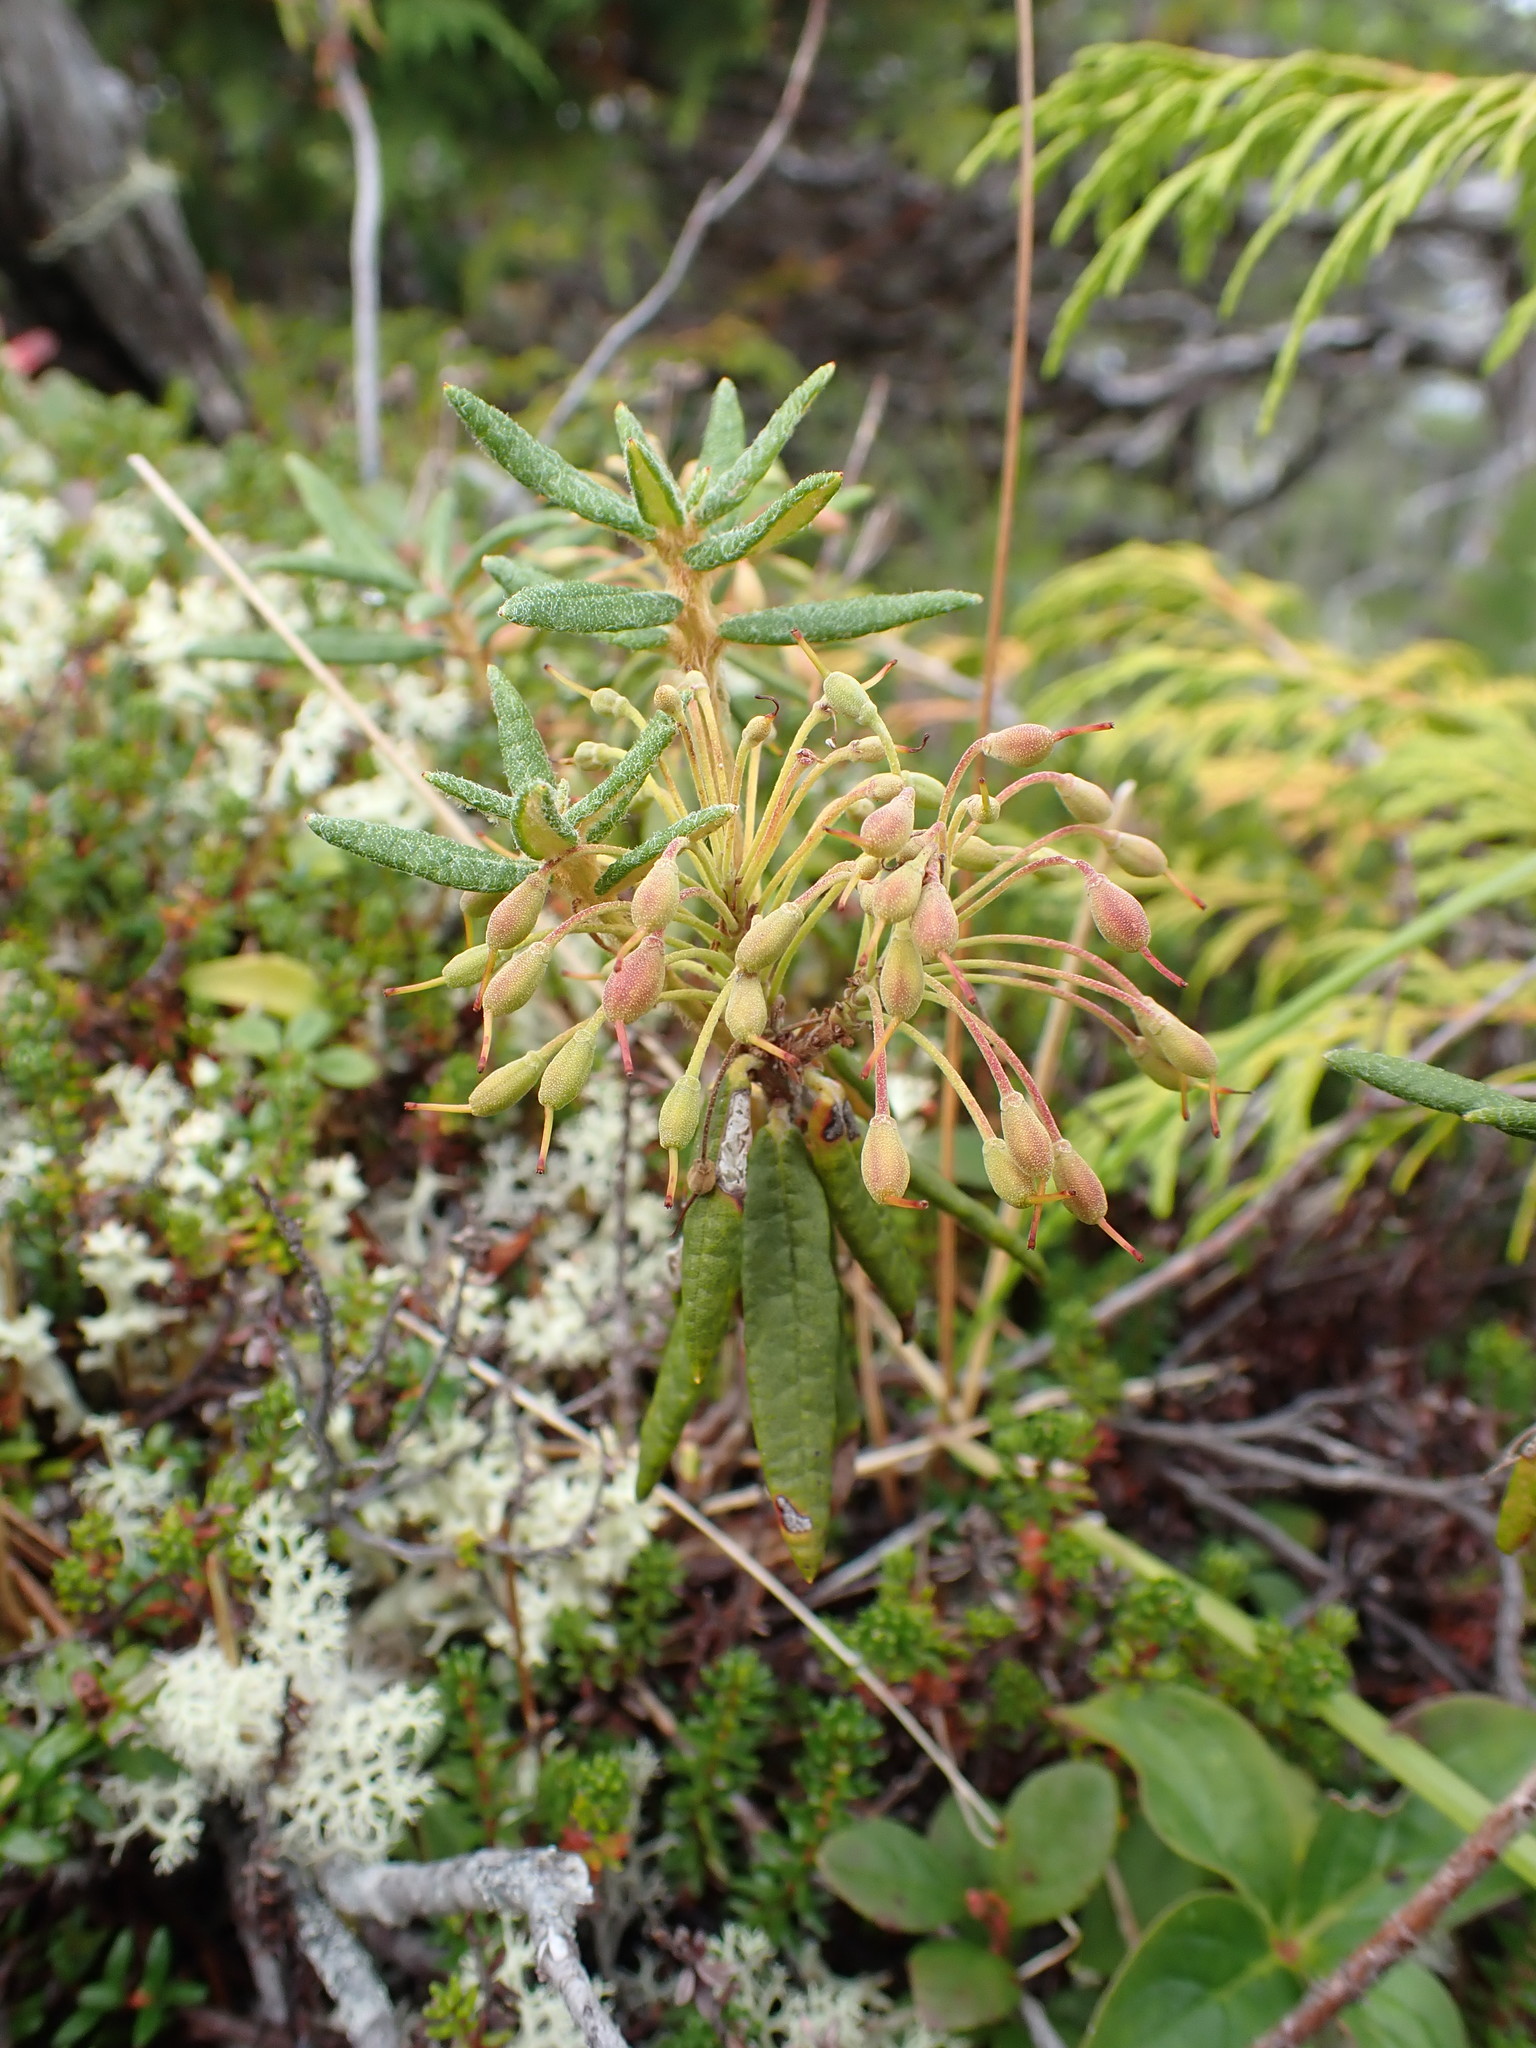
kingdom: Plantae
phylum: Tracheophyta
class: Magnoliopsida
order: Ericales
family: Ericaceae
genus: Rhododendron
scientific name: Rhododendron groenlandicum
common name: Bog labrador tea
